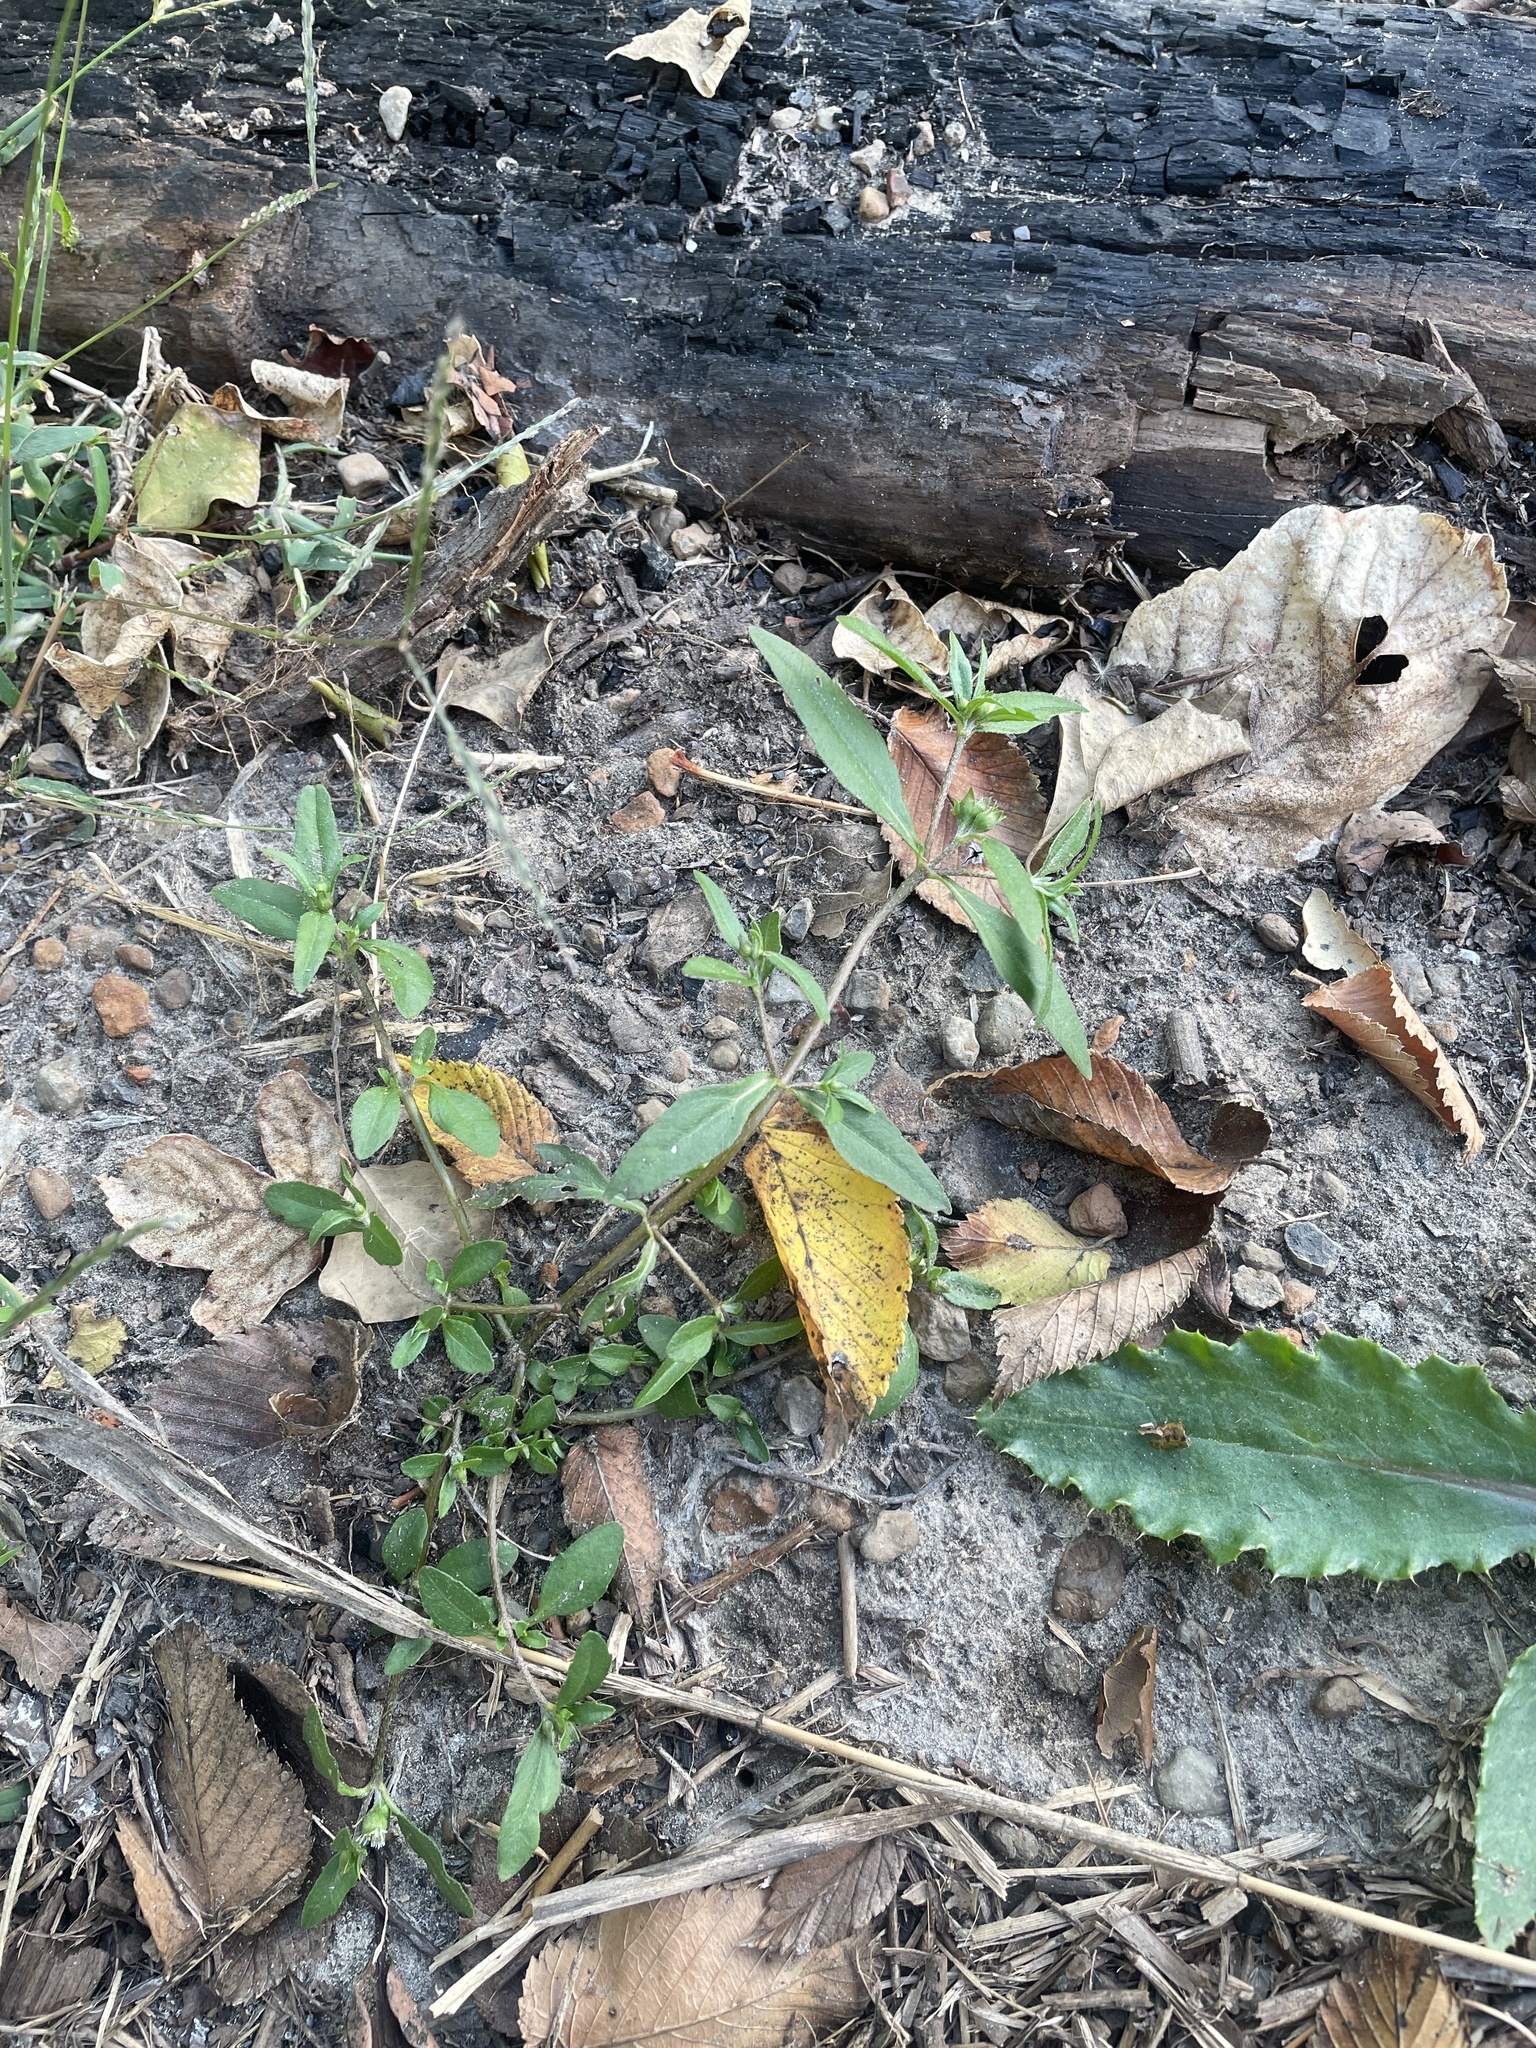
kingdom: Plantae
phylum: Tracheophyta
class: Magnoliopsida
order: Asterales
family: Asteraceae
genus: Eclipta
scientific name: Eclipta prostrata
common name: False daisy
